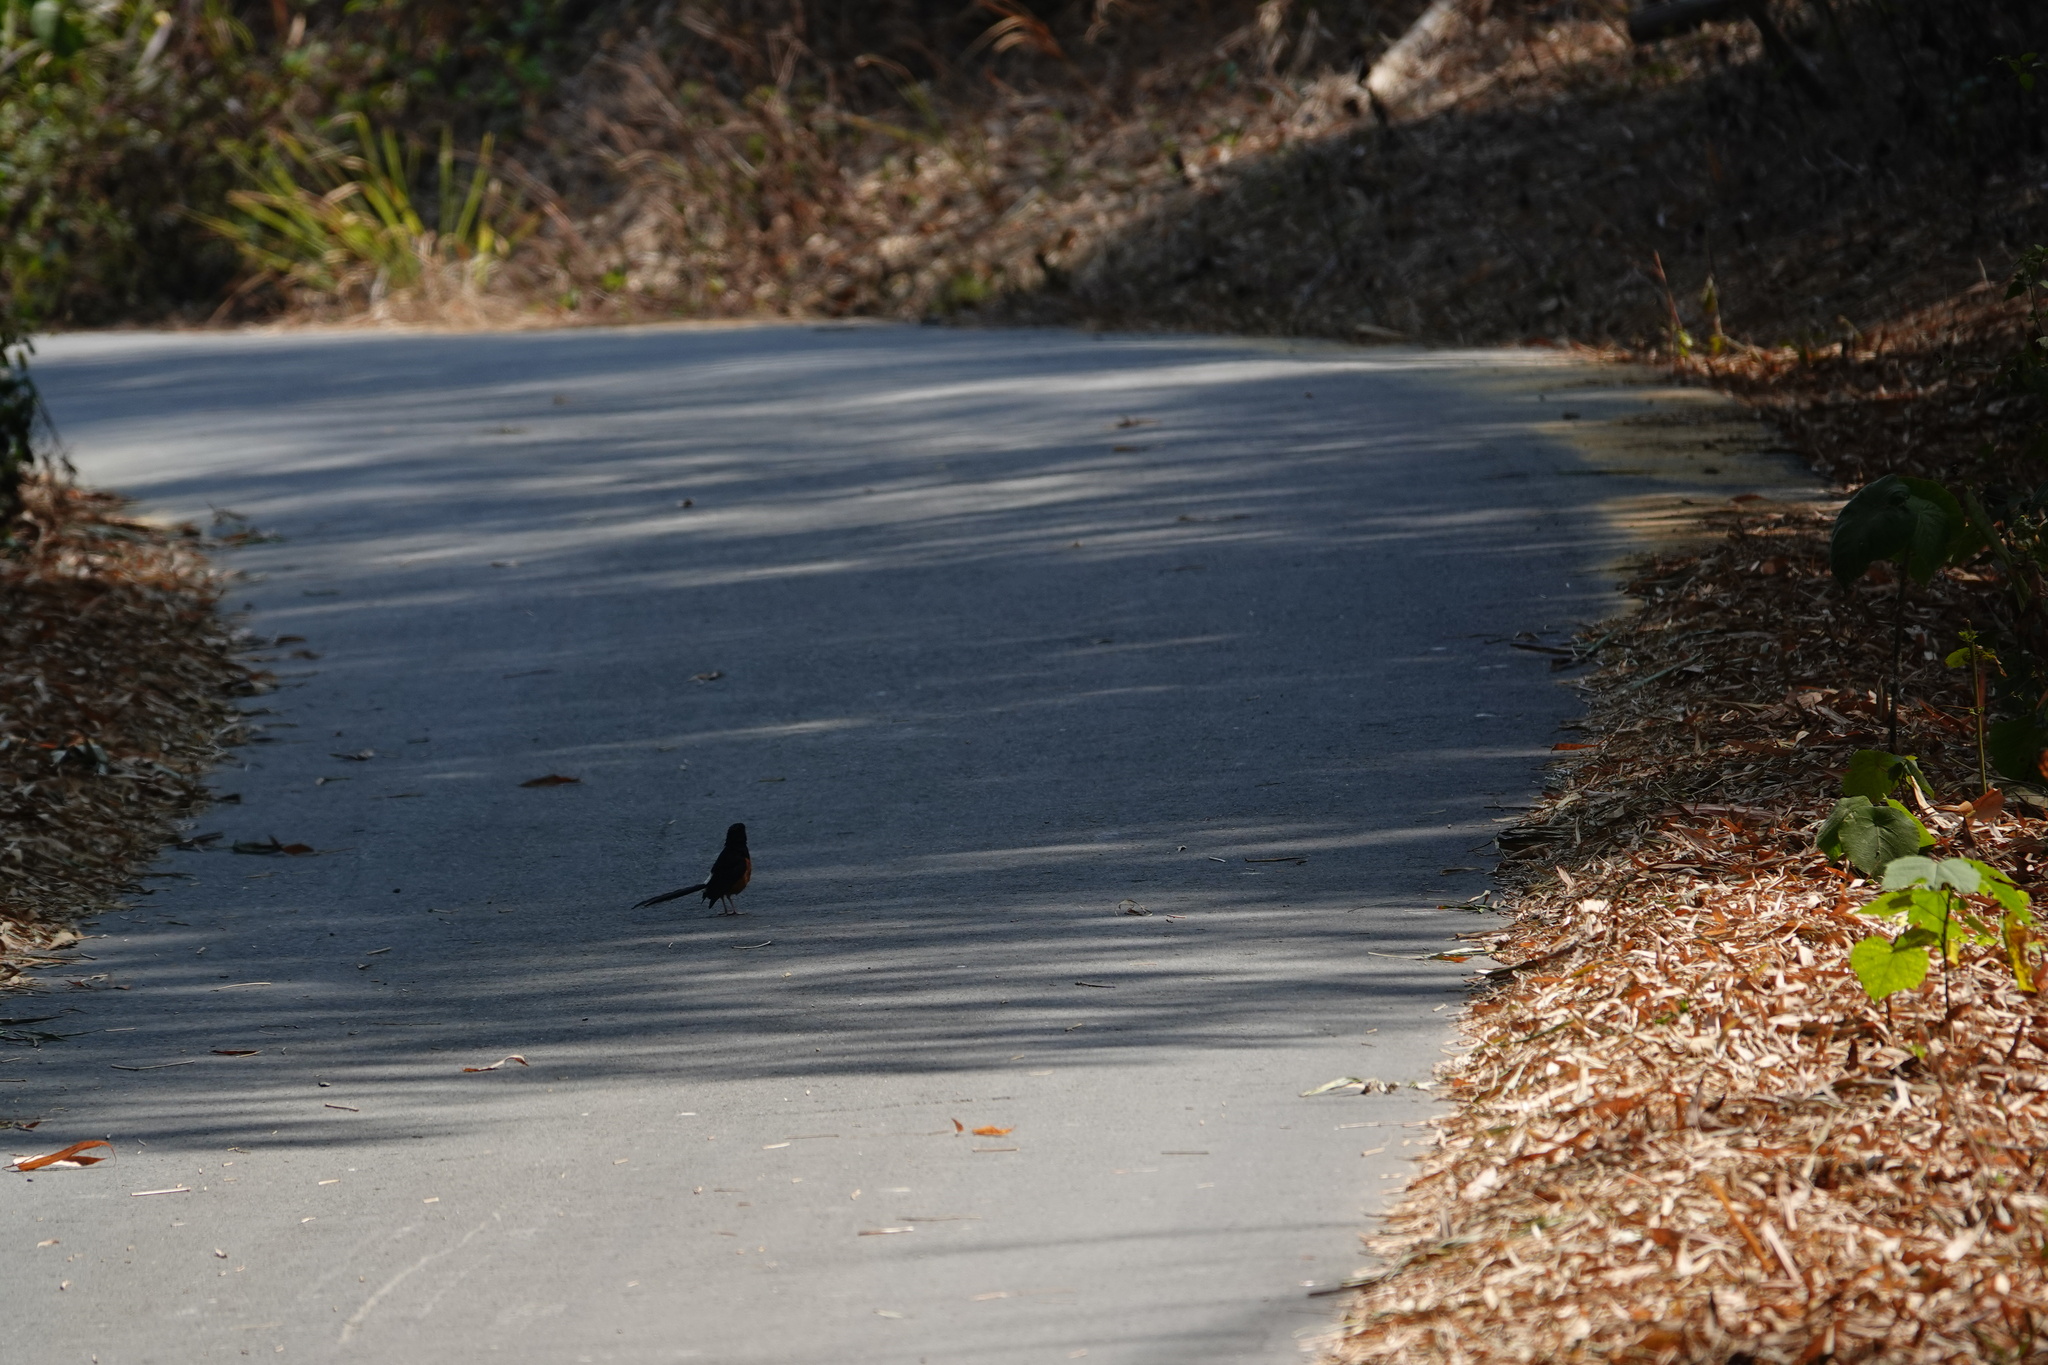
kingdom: Animalia
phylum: Chordata
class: Aves
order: Passeriformes
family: Muscicapidae
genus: Copsychus
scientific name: Copsychus malabaricus
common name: White-rumped shama
